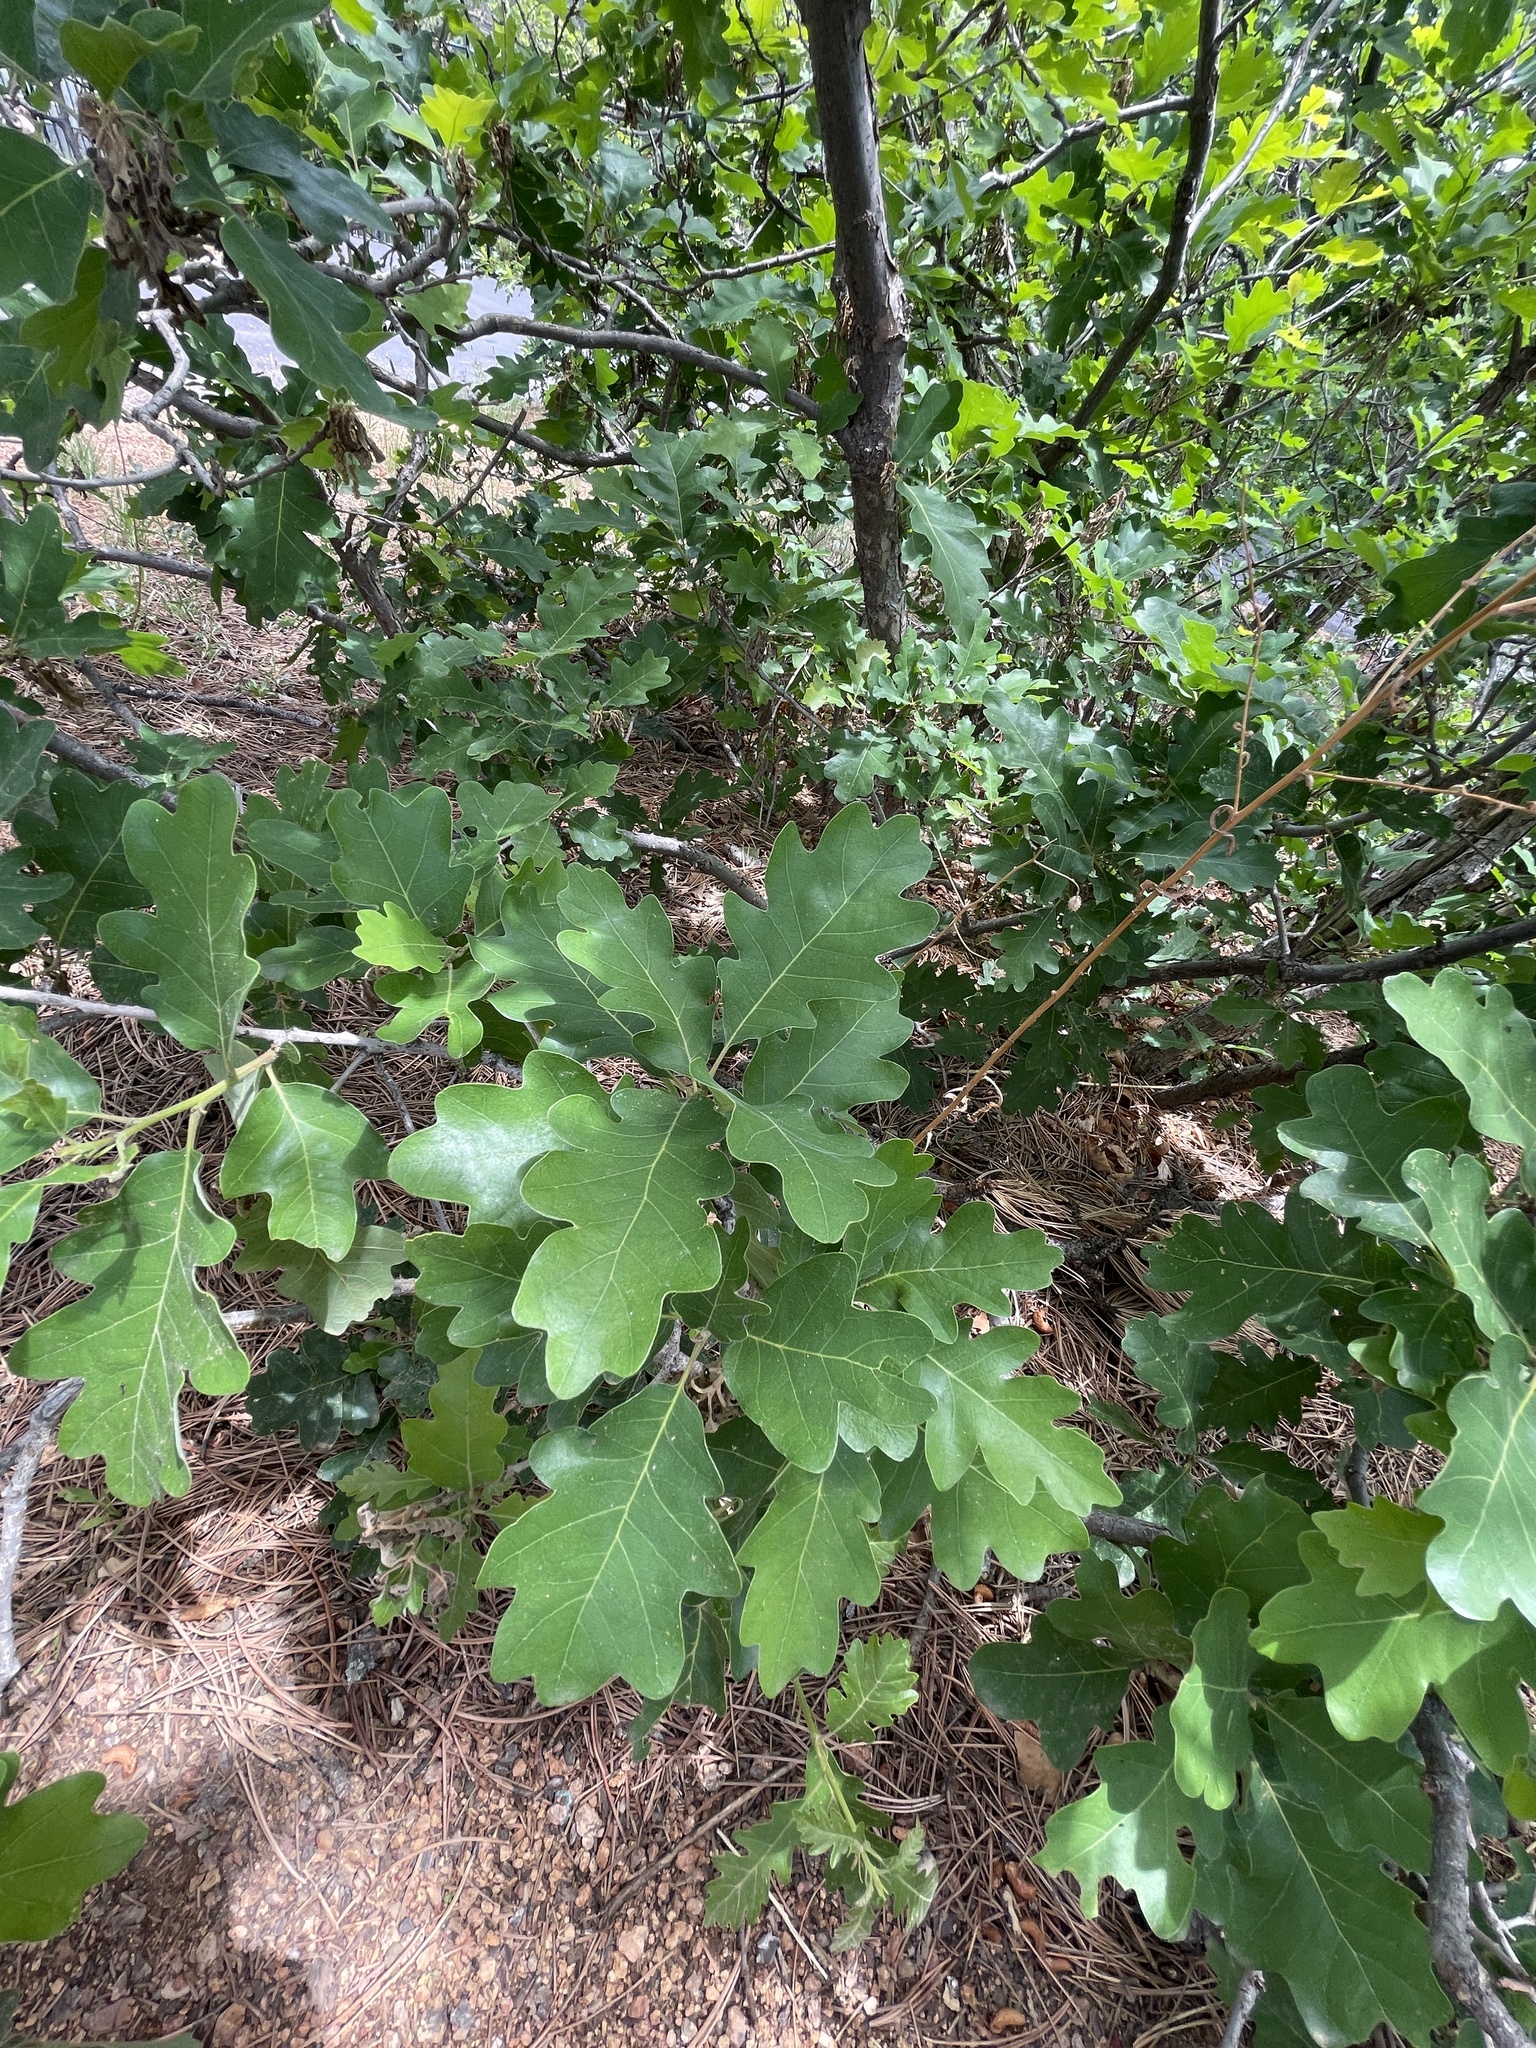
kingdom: Plantae
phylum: Tracheophyta
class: Magnoliopsida
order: Fagales
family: Fagaceae
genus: Quercus
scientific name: Quercus gambelii
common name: Gambel oak
